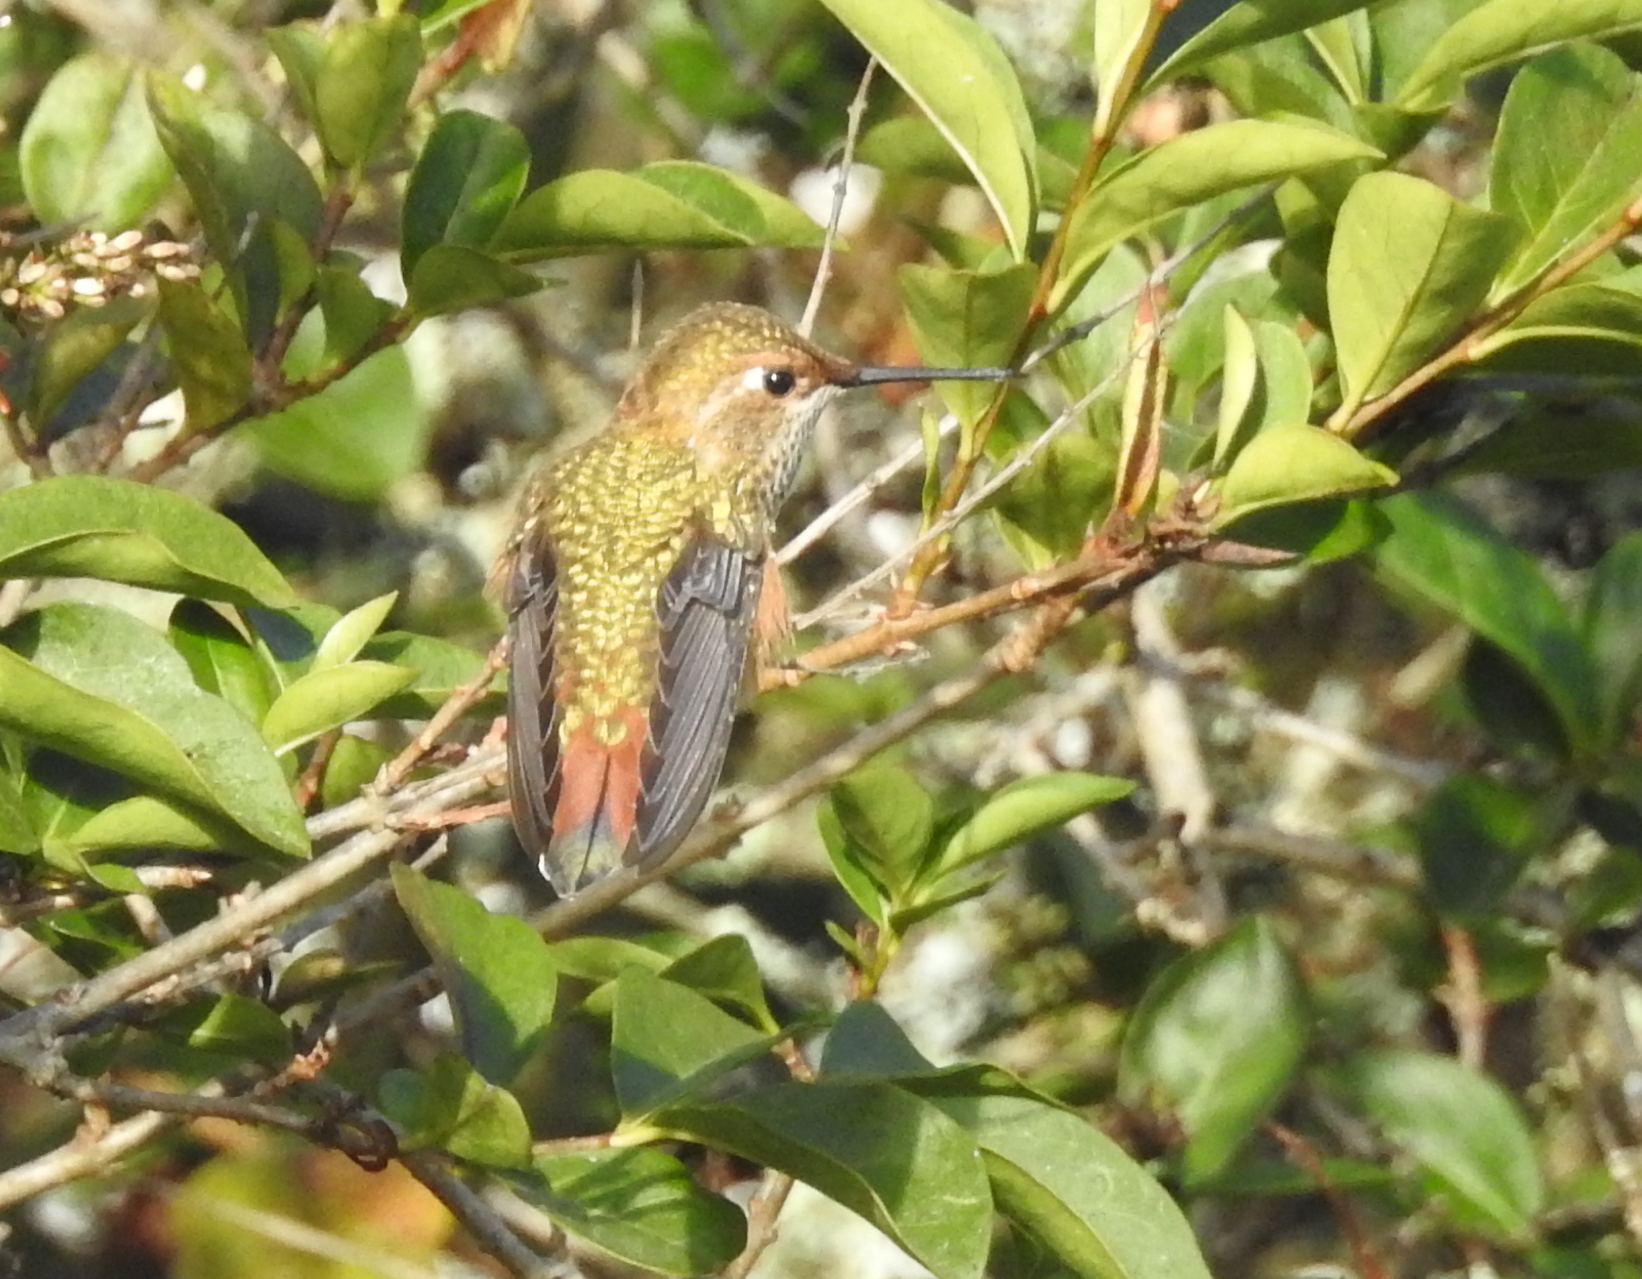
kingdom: Animalia
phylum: Chordata
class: Aves
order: Apodiformes
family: Trochilidae
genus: Selasphorus
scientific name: Selasphorus
